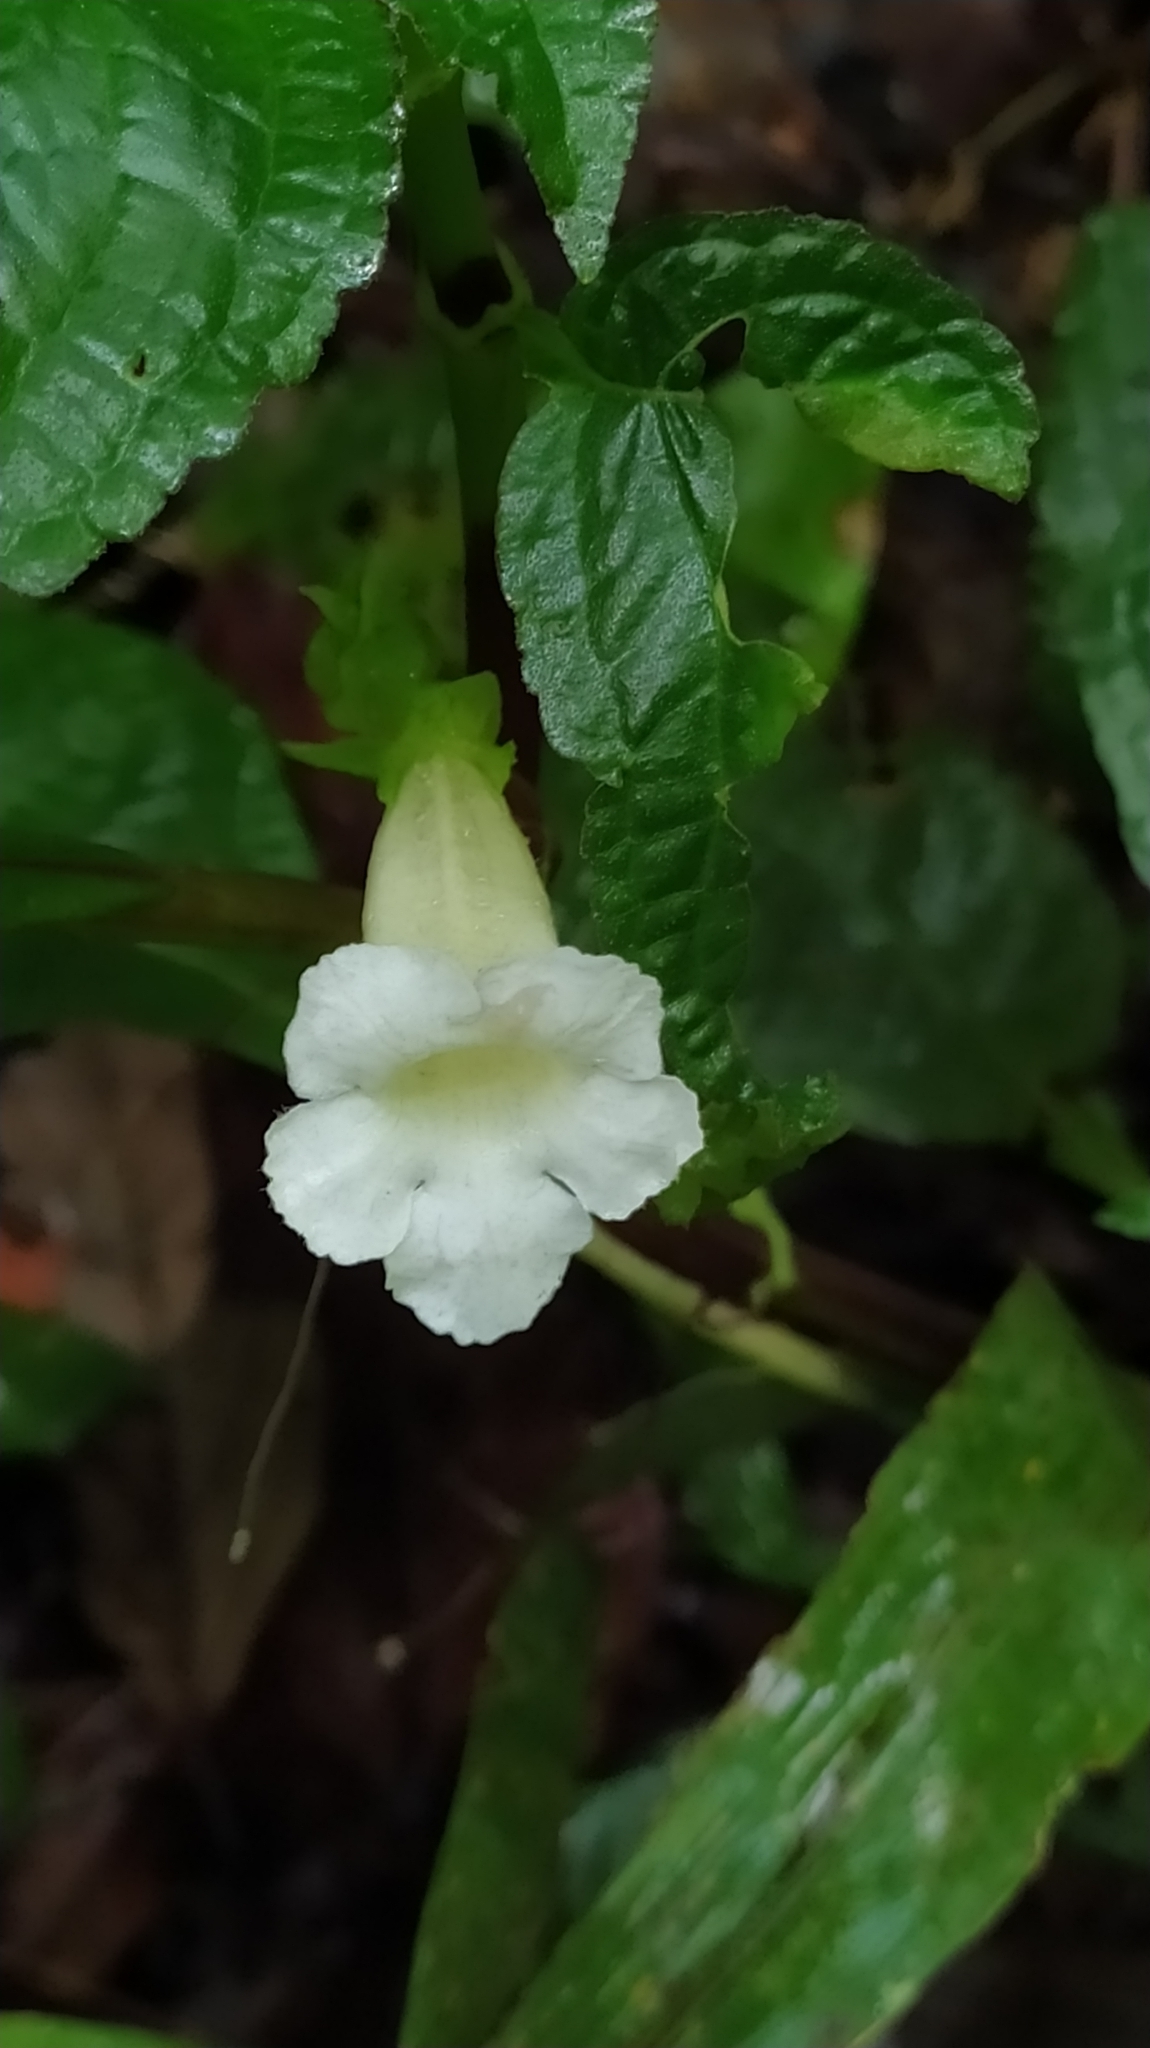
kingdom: Plantae
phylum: Tracheophyta
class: Magnoliopsida
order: Lamiales
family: Gesneriaceae
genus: Nautilocalyx
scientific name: Nautilocalyx mimuloides
